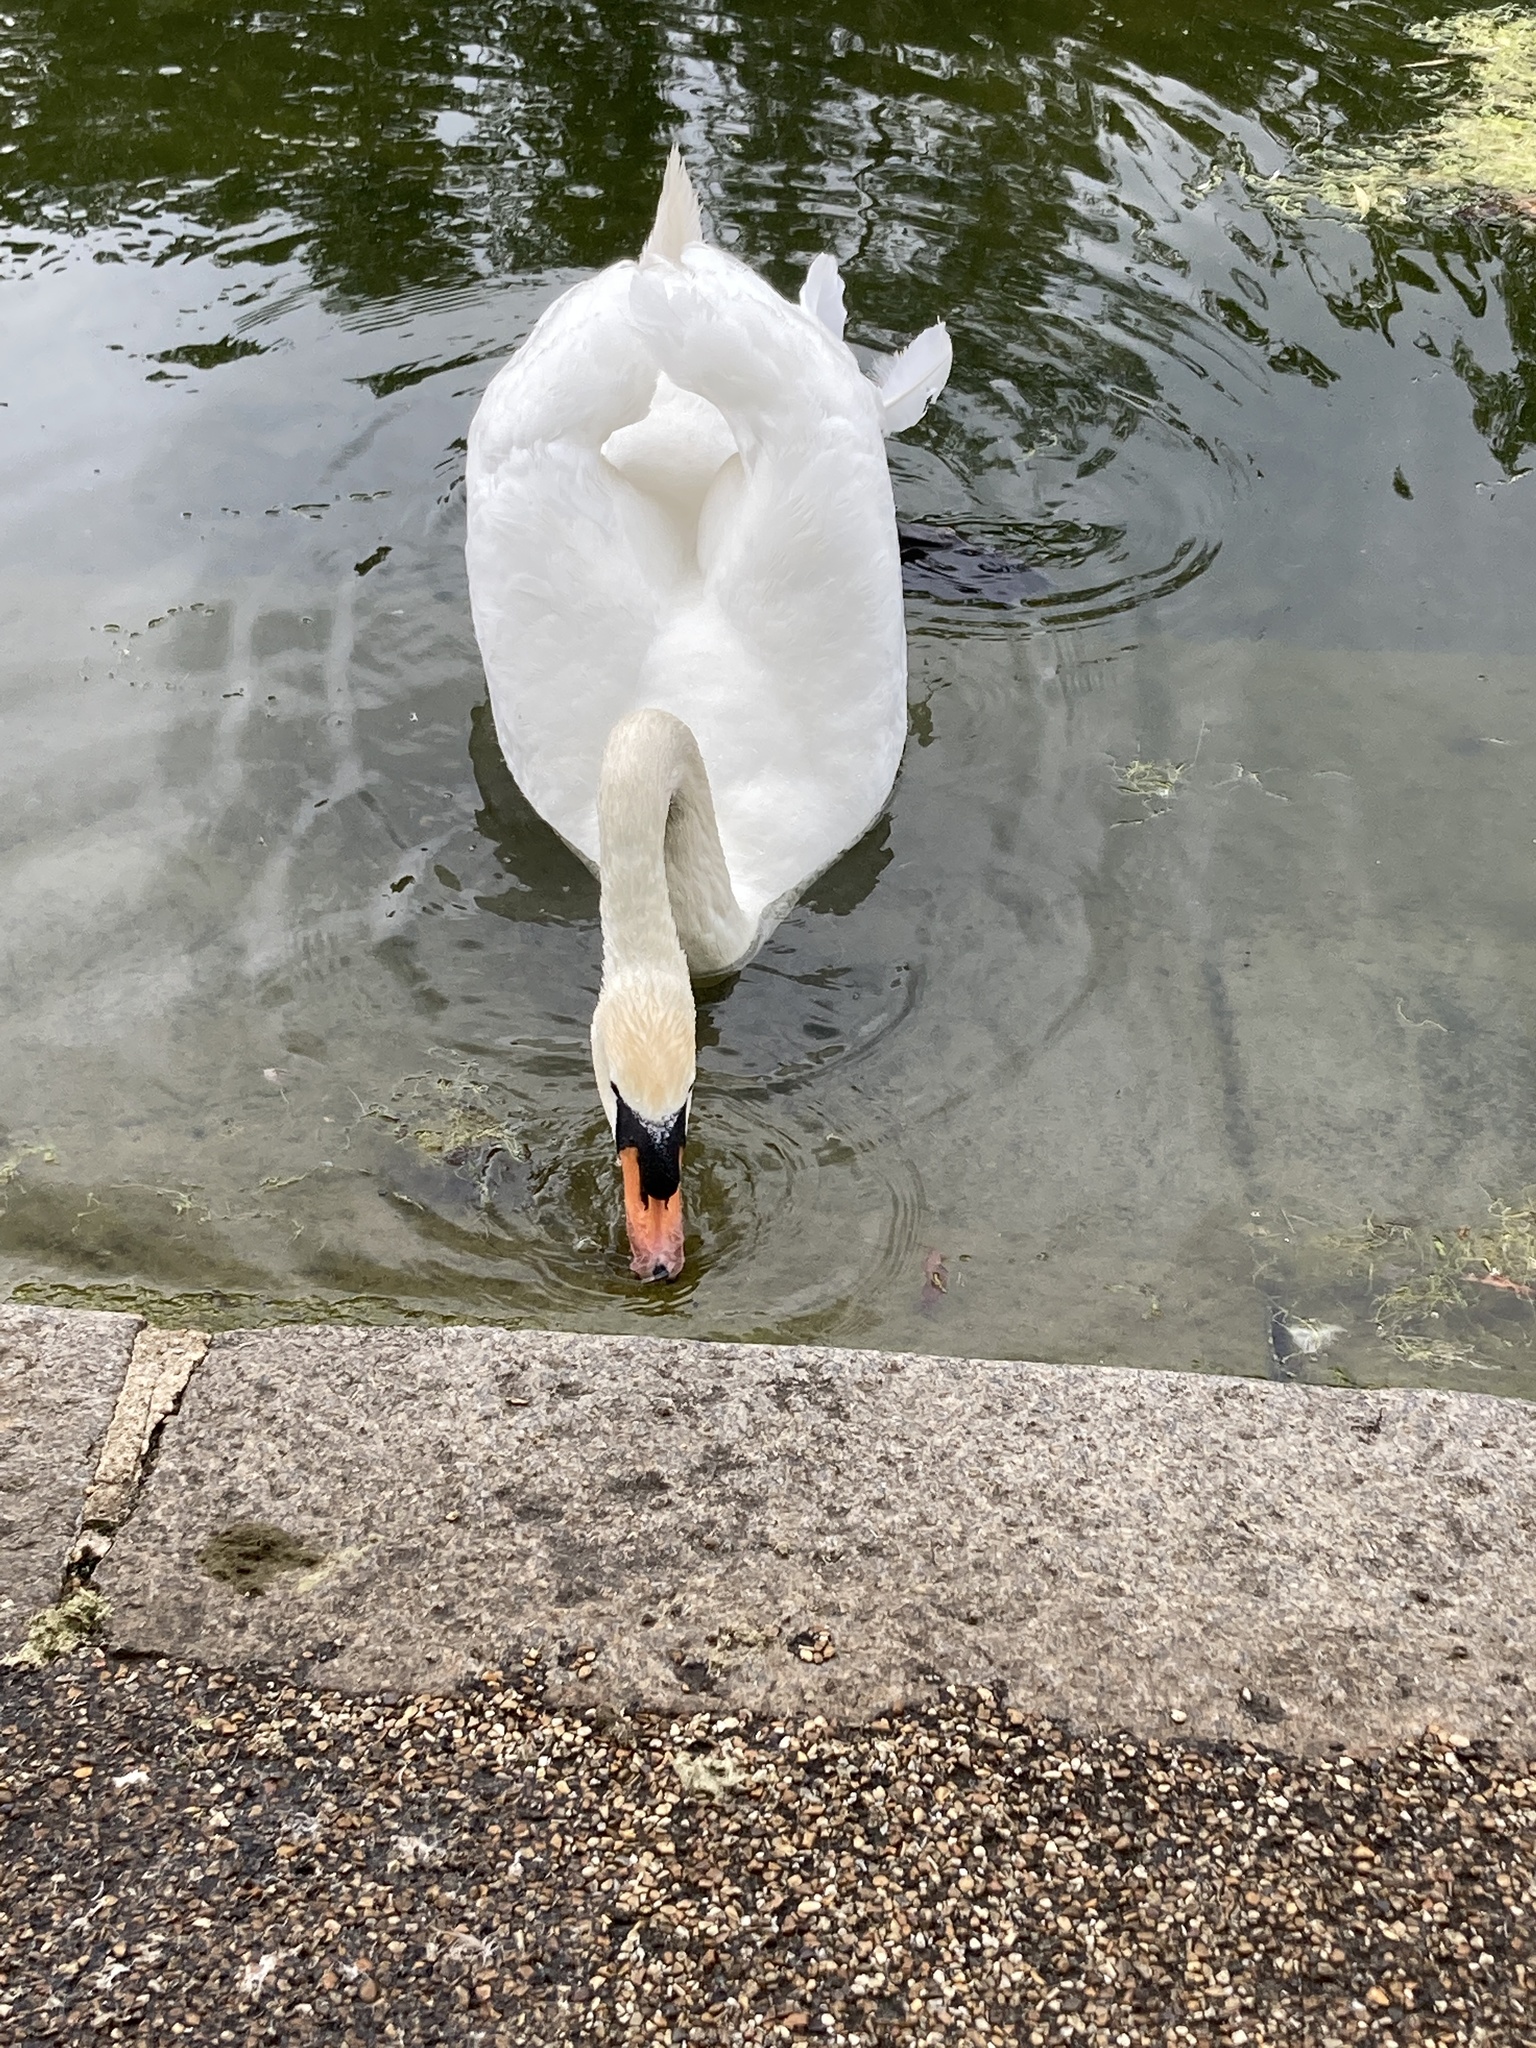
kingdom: Animalia
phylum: Chordata
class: Aves
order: Anseriformes
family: Anatidae
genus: Cygnus
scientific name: Cygnus olor
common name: Mute swan
